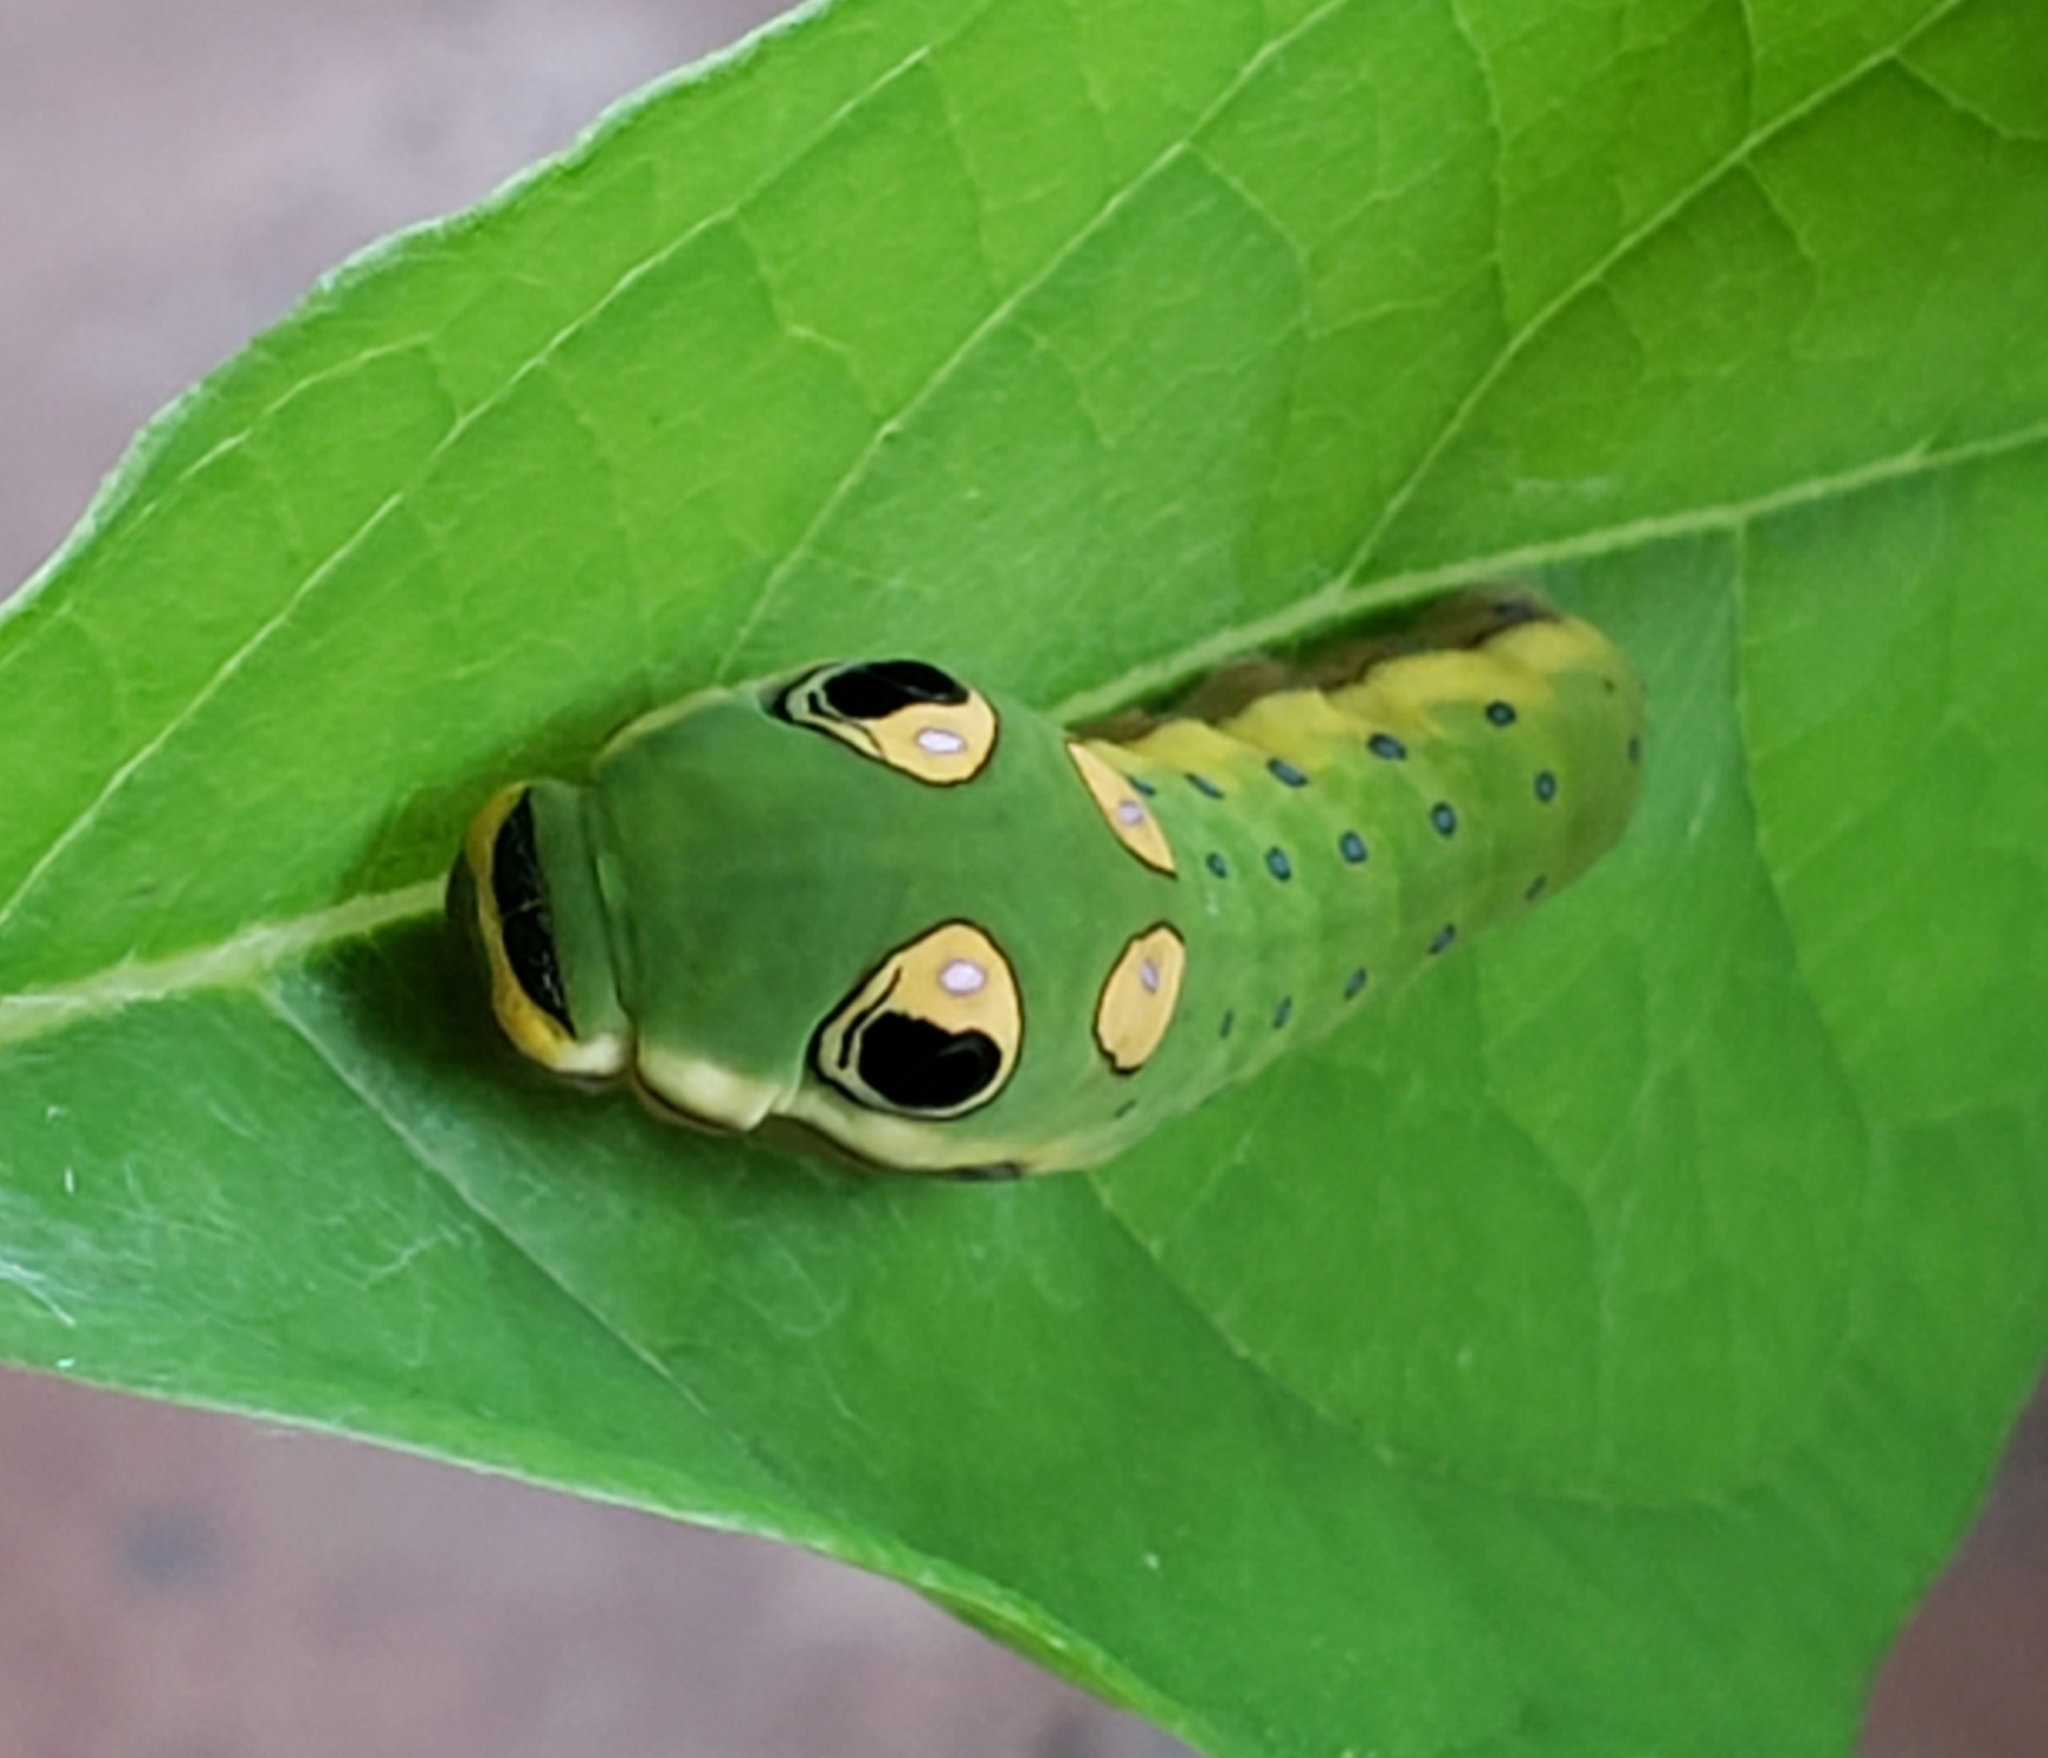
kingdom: Animalia
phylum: Arthropoda
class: Insecta
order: Lepidoptera
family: Papilionidae
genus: Papilio
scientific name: Papilio troilus
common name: Spicebush swallowtail
